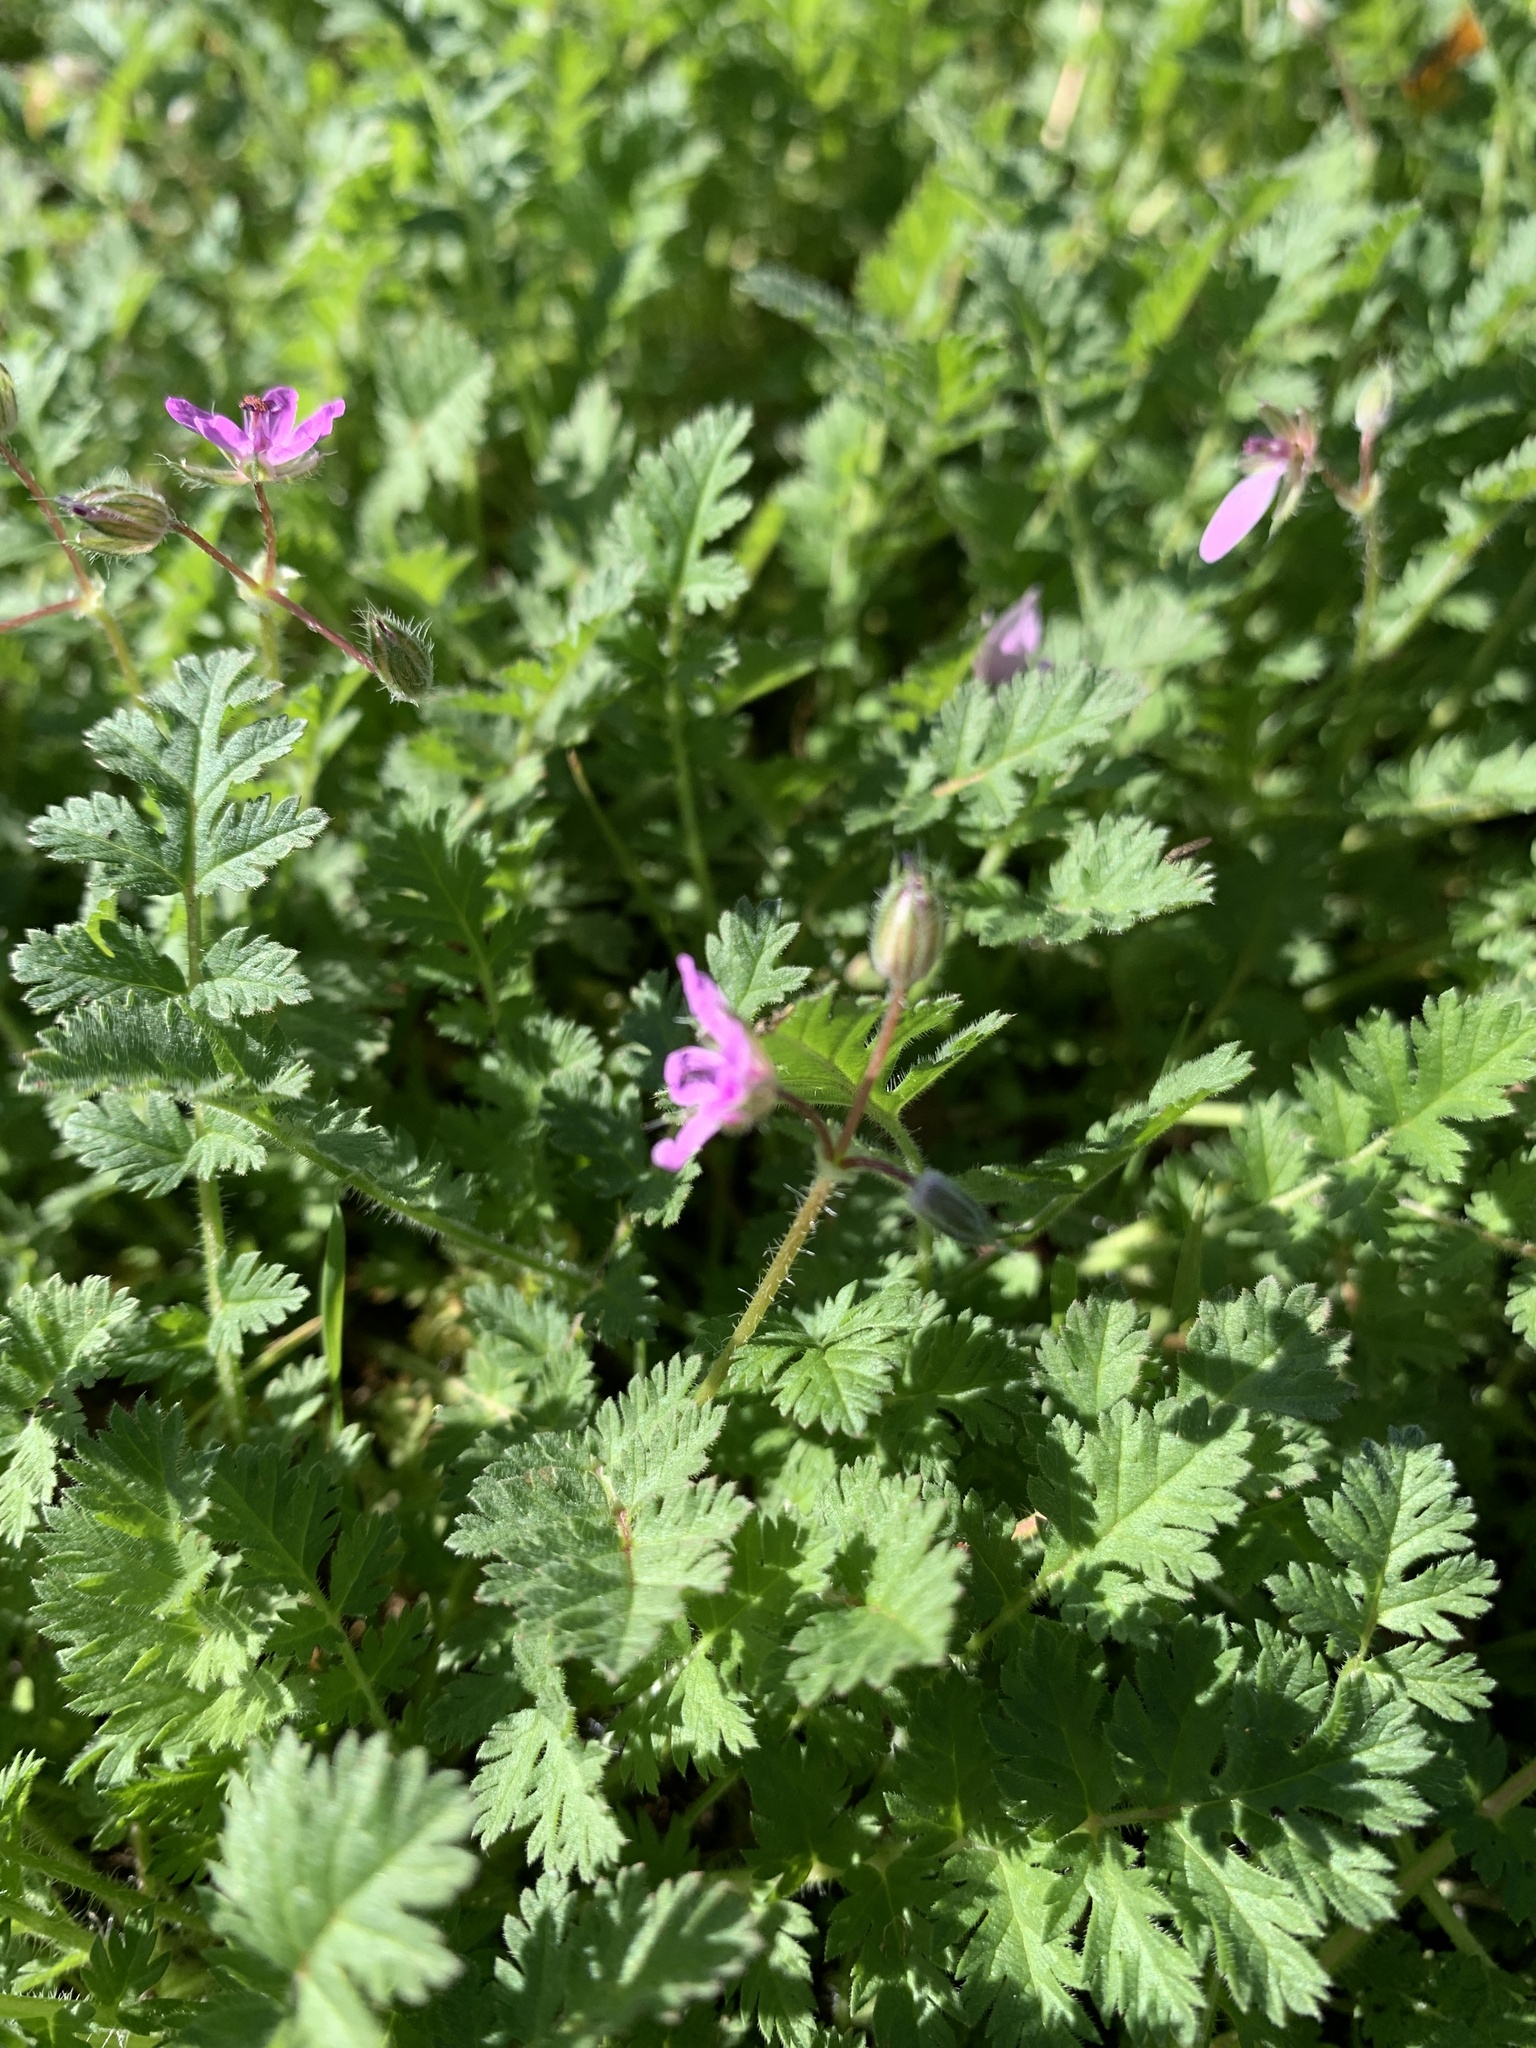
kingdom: Plantae
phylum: Tracheophyta
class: Magnoliopsida
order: Geraniales
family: Geraniaceae
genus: Erodium
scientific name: Erodium cicutarium
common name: Common stork's-bill
